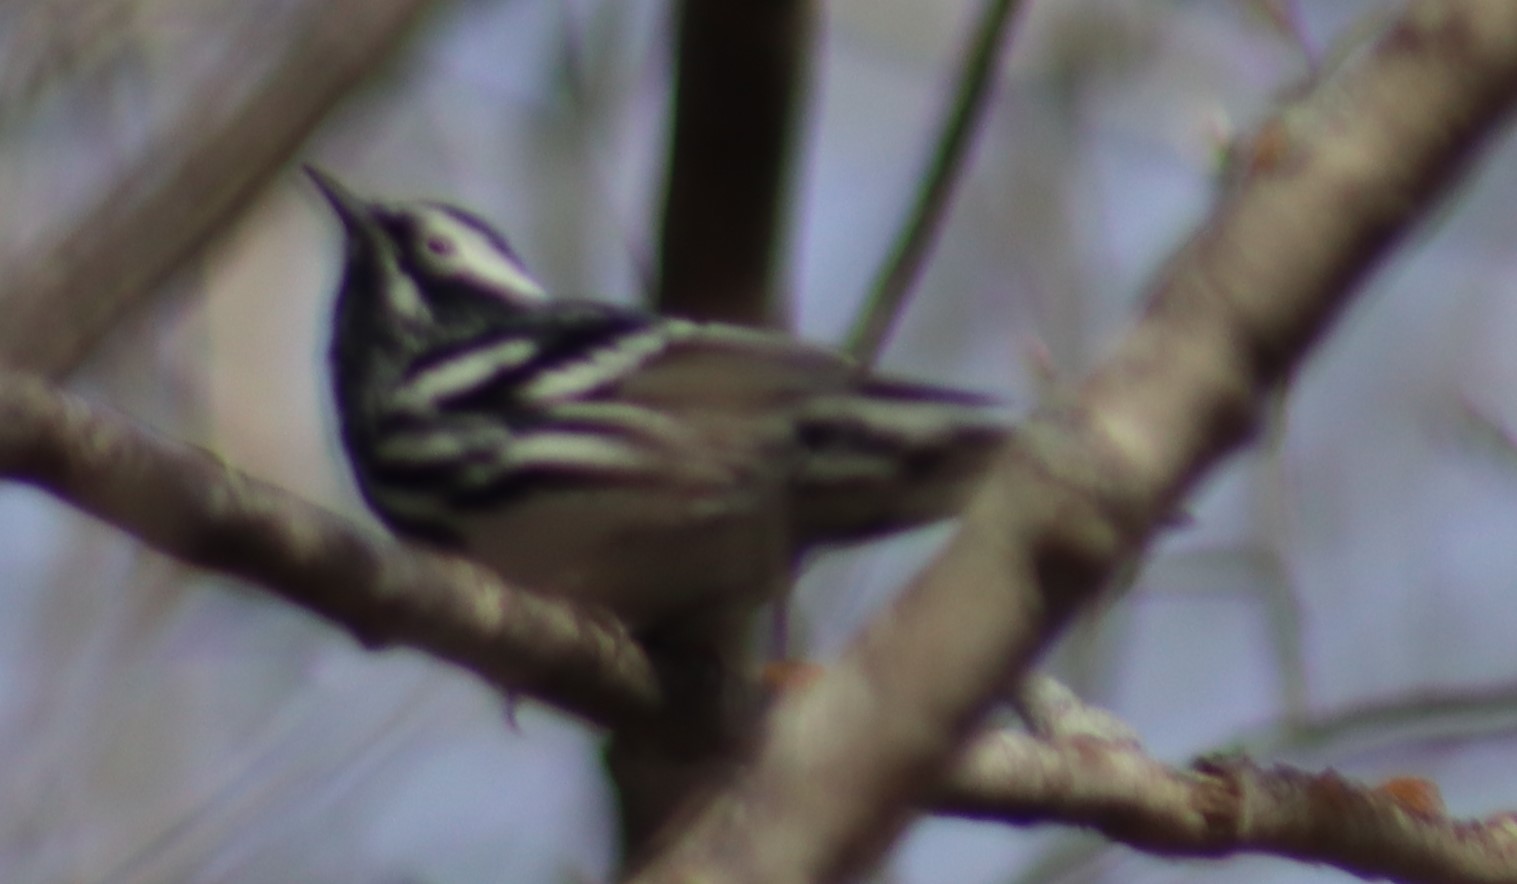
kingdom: Animalia
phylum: Chordata
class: Aves
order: Passeriformes
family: Parulidae
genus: Mniotilta
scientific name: Mniotilta varia
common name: Black-and-white warbler
